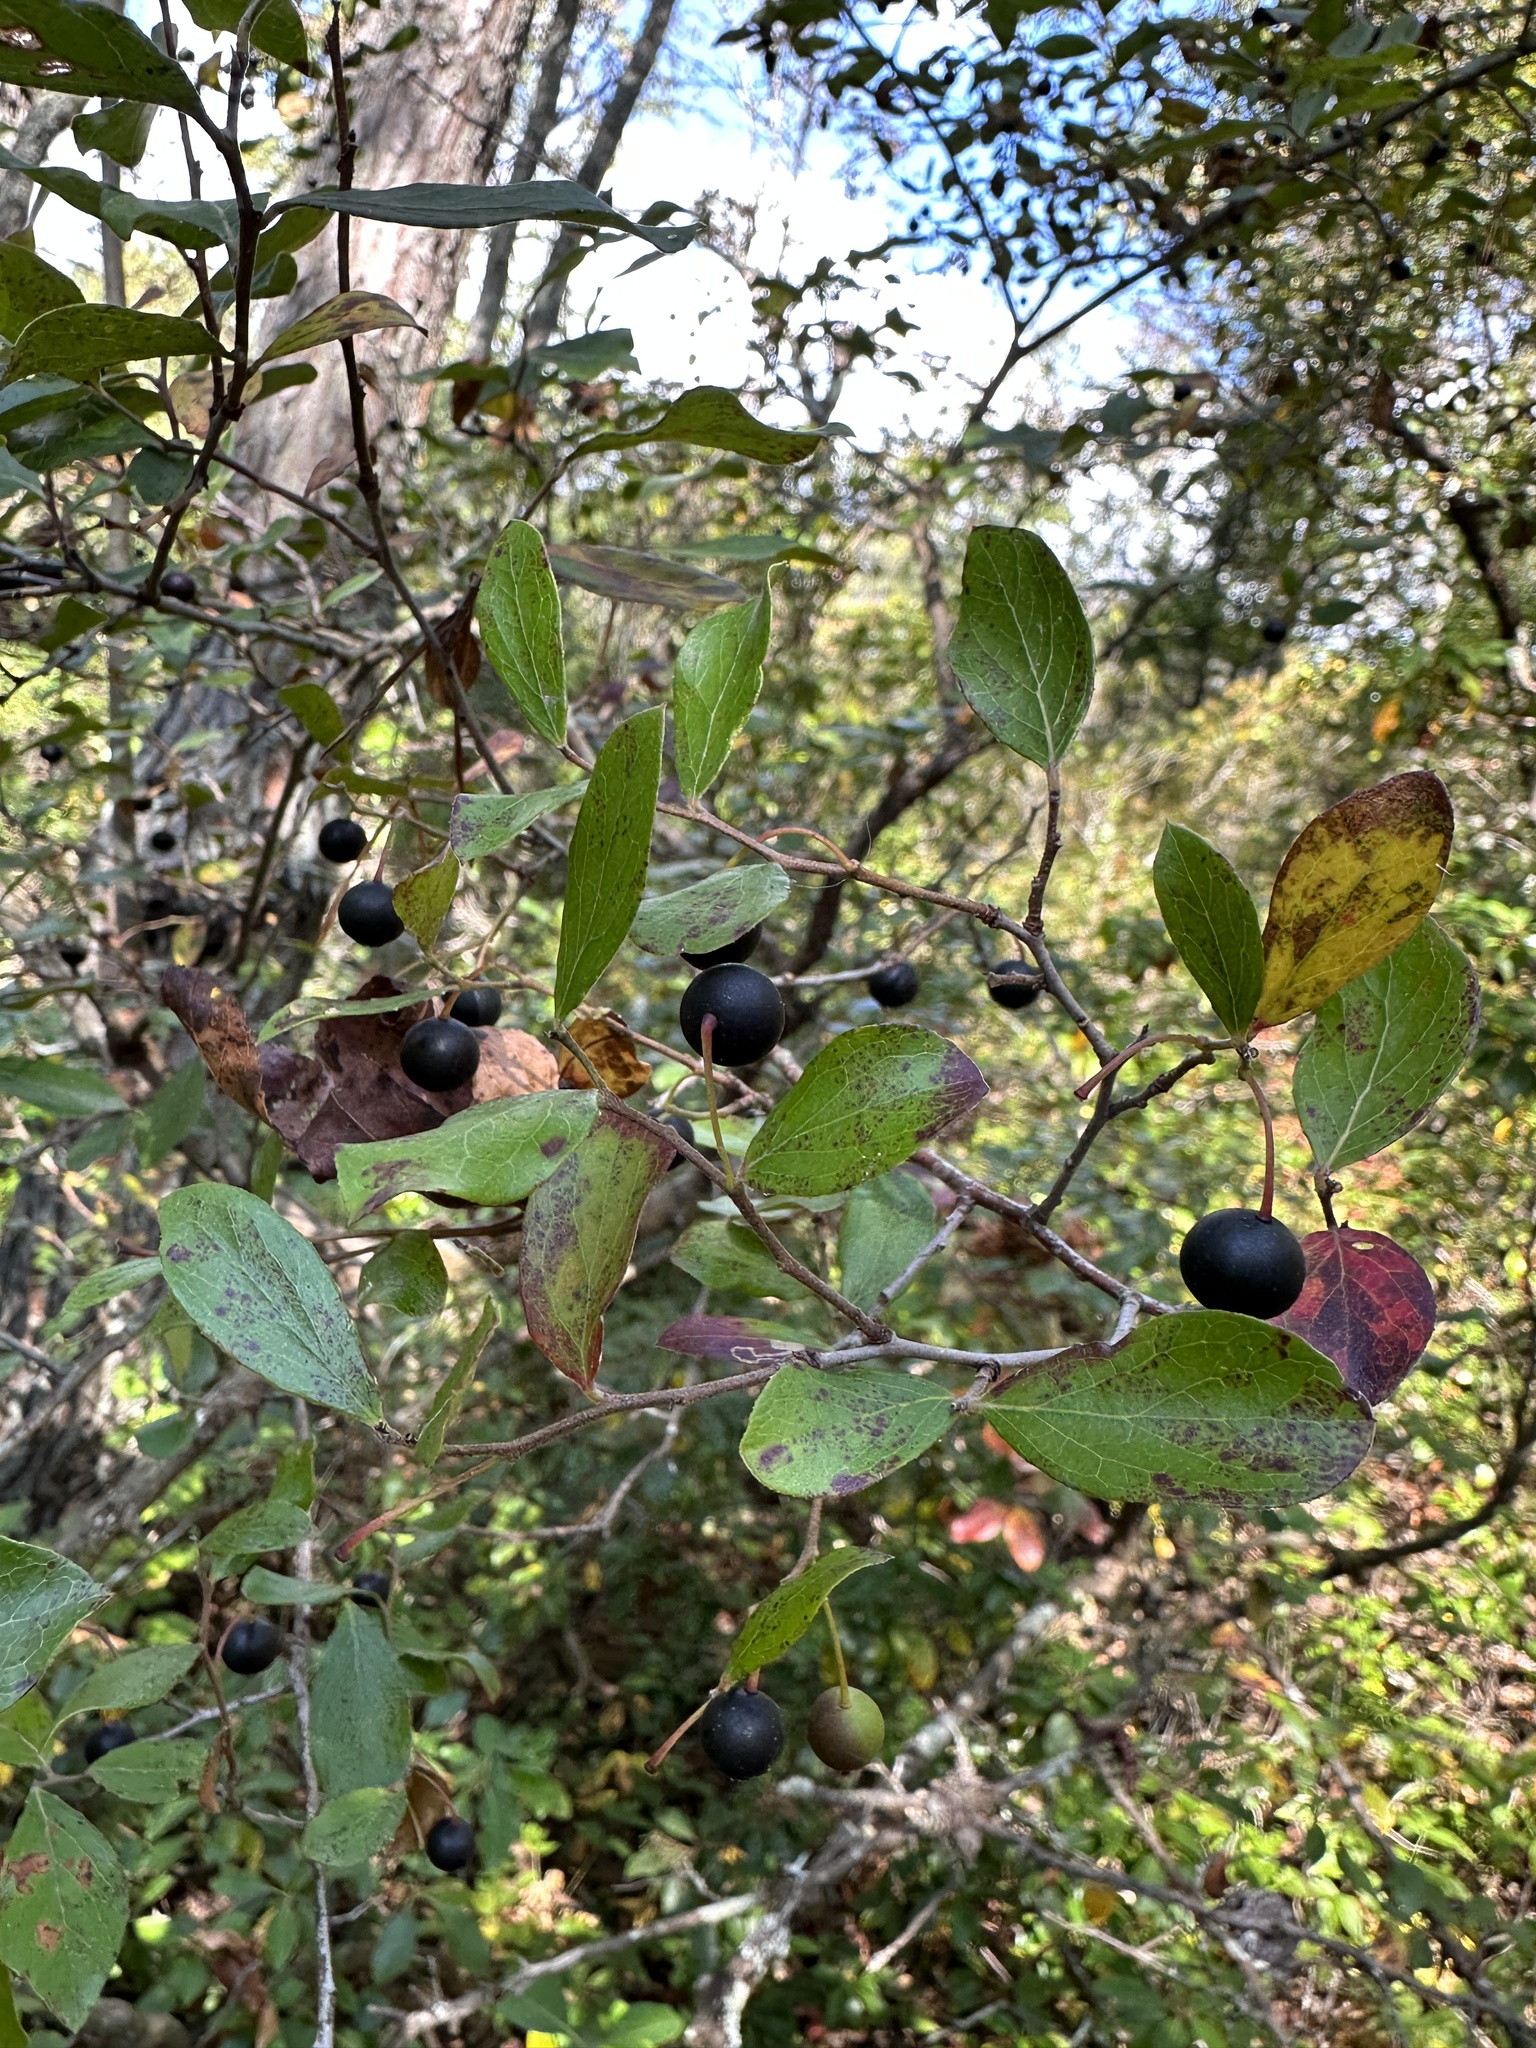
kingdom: Plantae
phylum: Tracheophyta
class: Magnoliopsida
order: Ericales
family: Ericaceae
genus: Vaccinium
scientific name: Vaccinium arboreum
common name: Farkleberry
